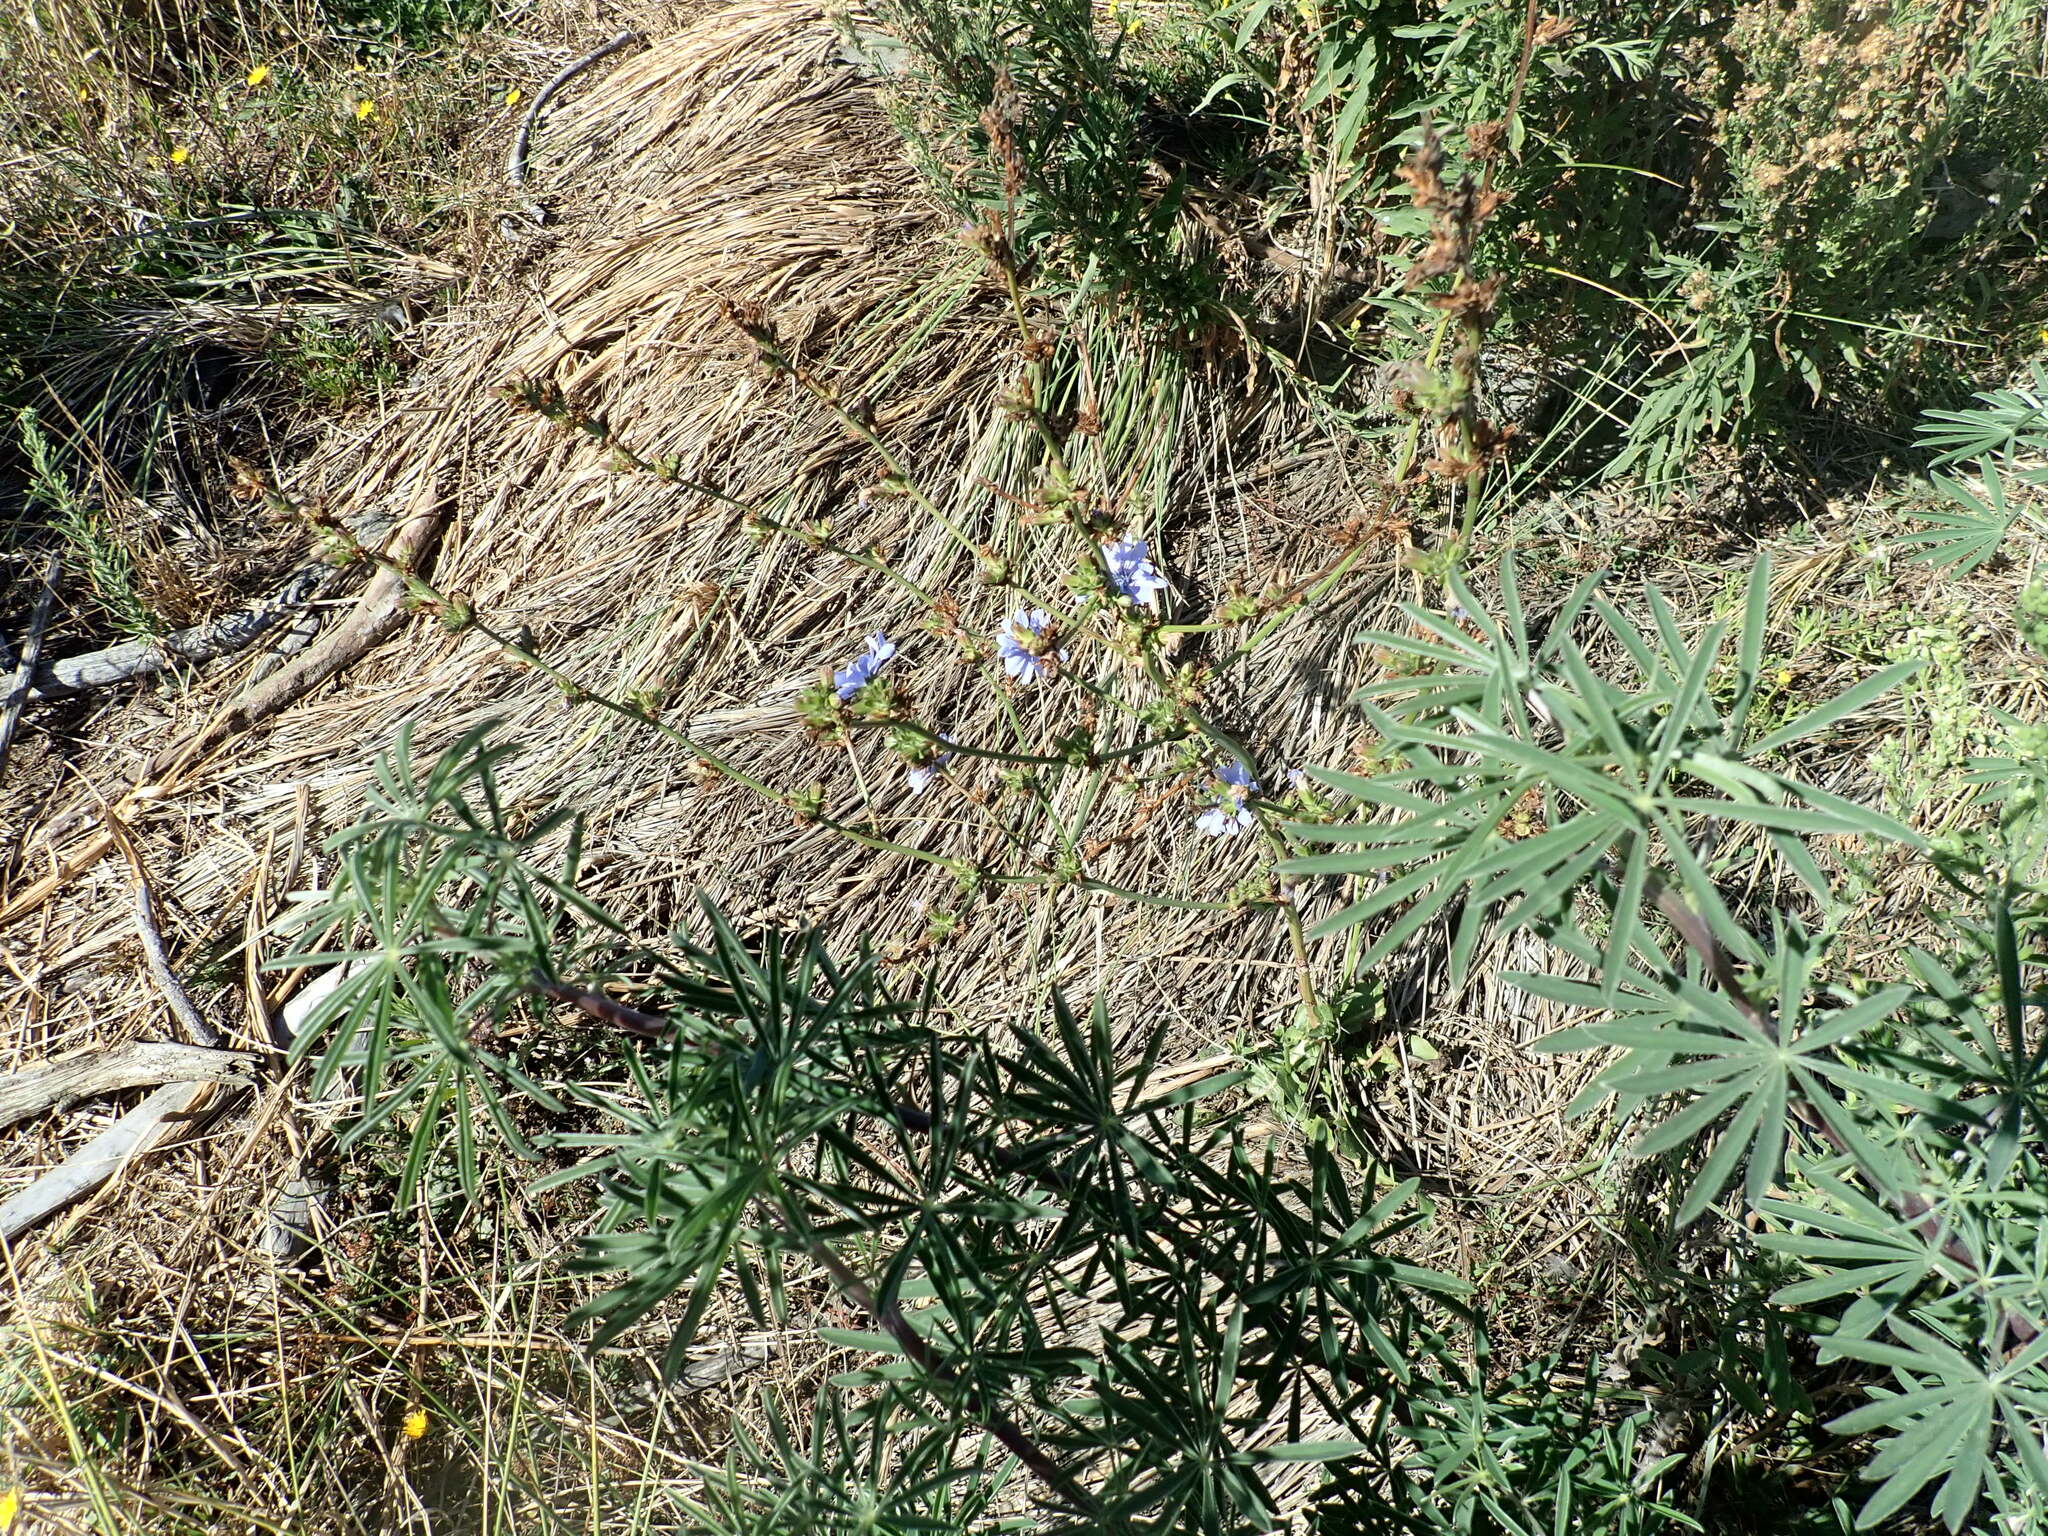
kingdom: Plantae
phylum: Tracheophyta
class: Magnoliopsida
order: Asterales
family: Asteraceae
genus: Cichorium
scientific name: Cichorium intybus
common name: Chicory
